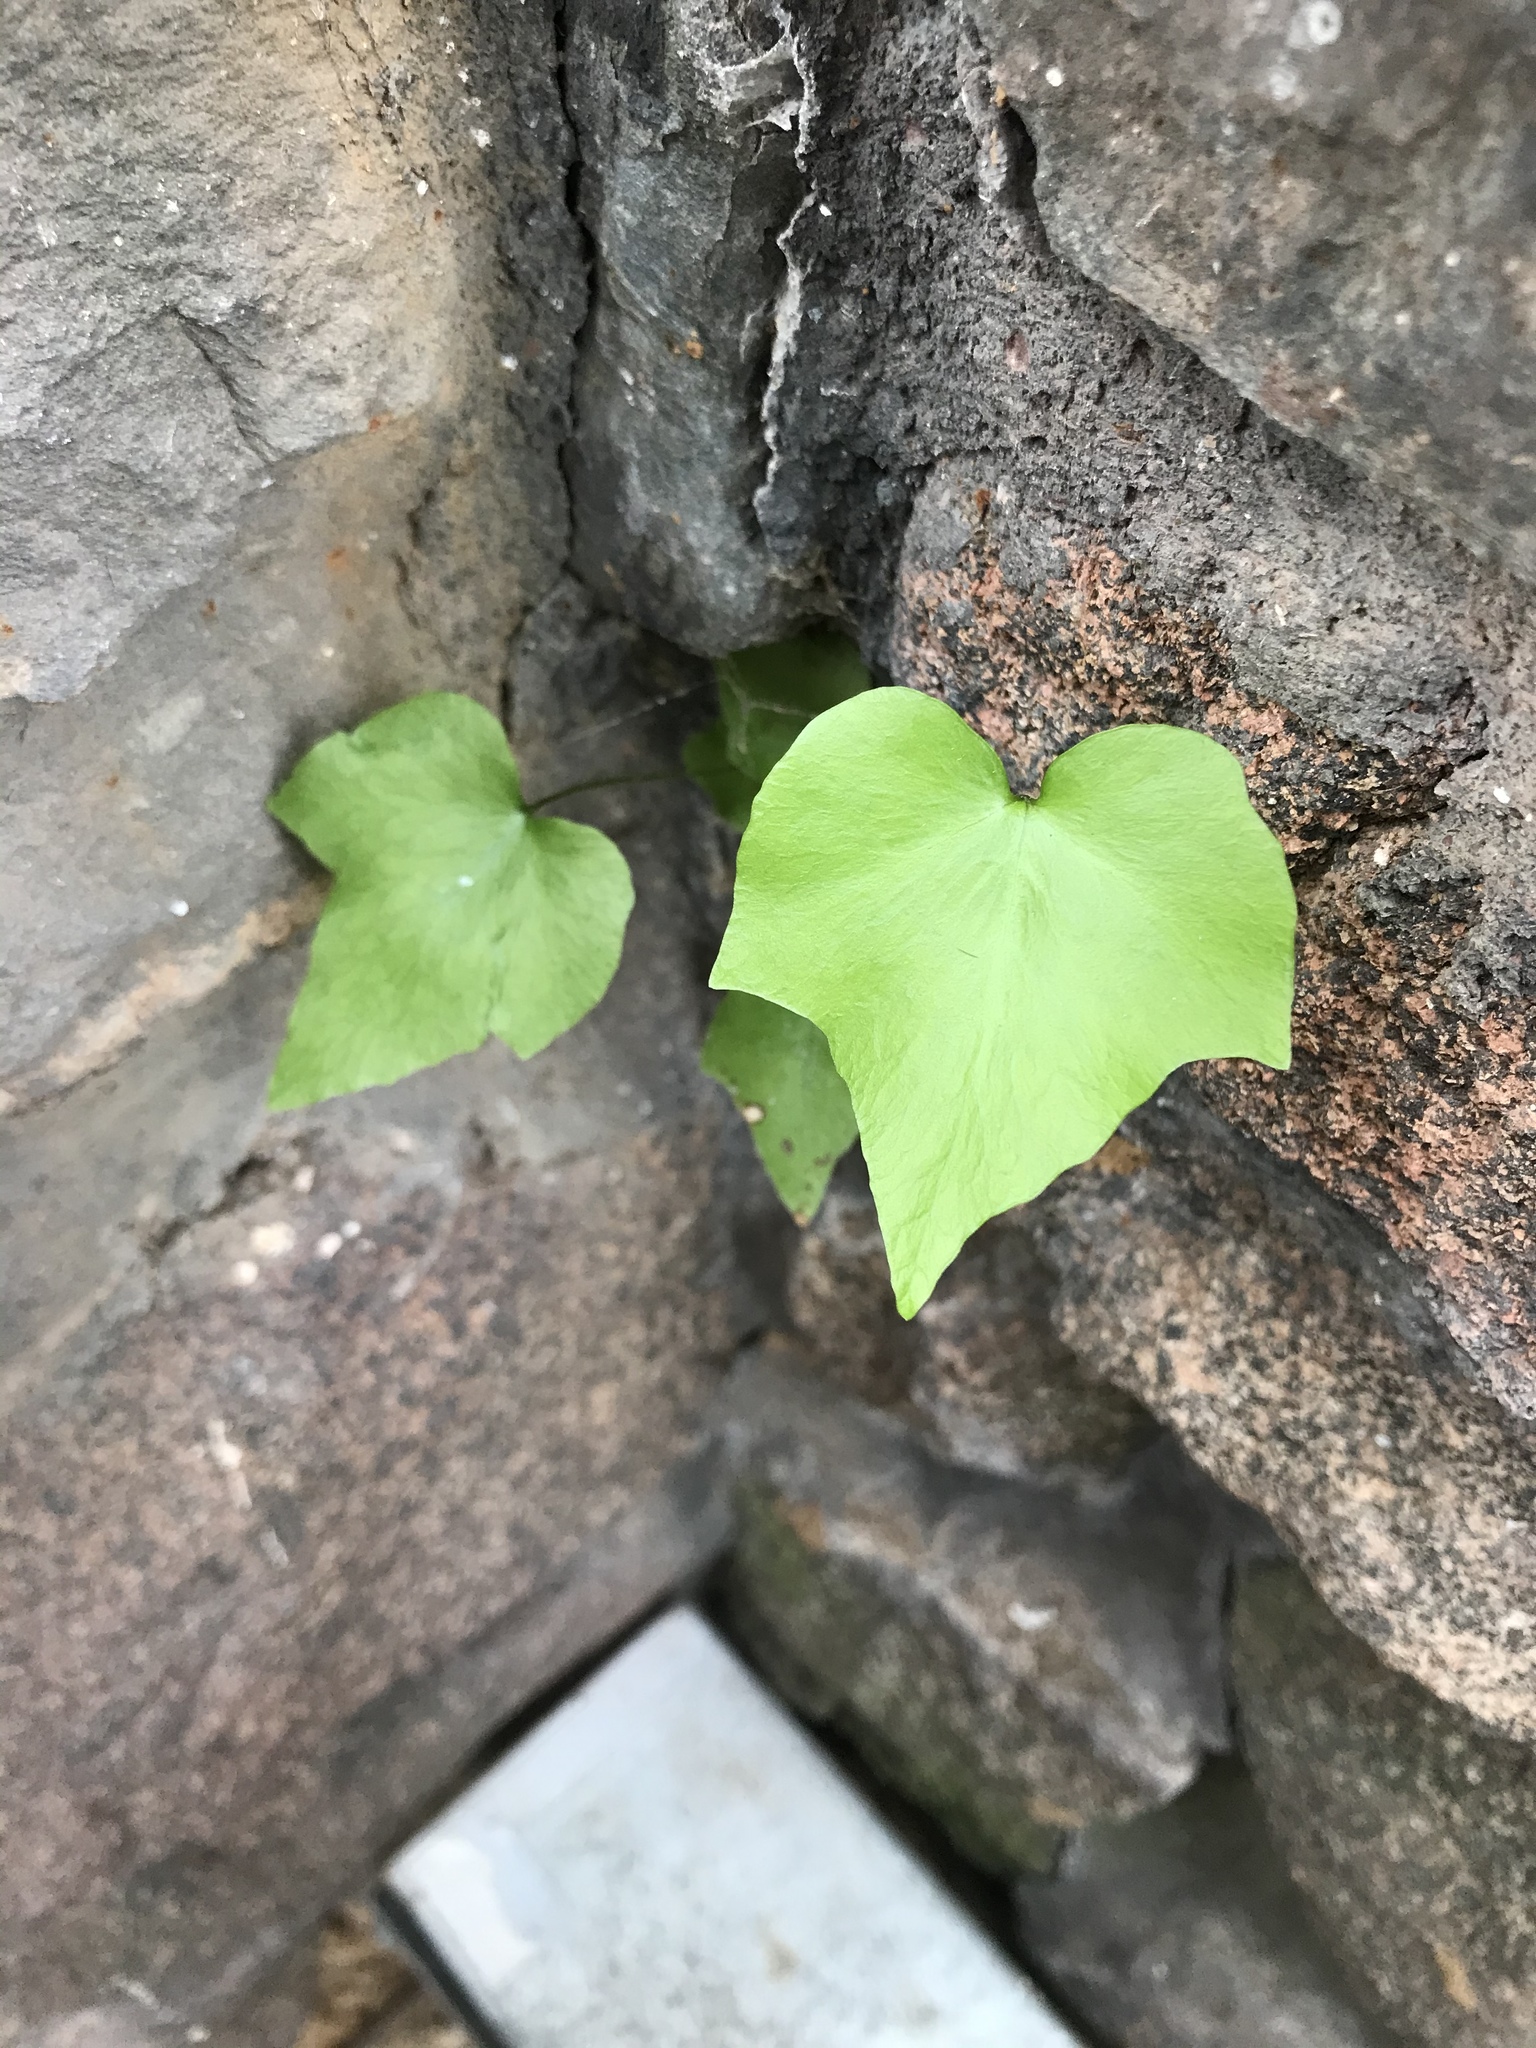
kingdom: Plantae
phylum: Tracheophyta
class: Polypodiopsida
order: Polypodiales
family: Dryopteridaceae
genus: Cyrtomium
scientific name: Cyrtomium falcatum
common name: House holly-fern
